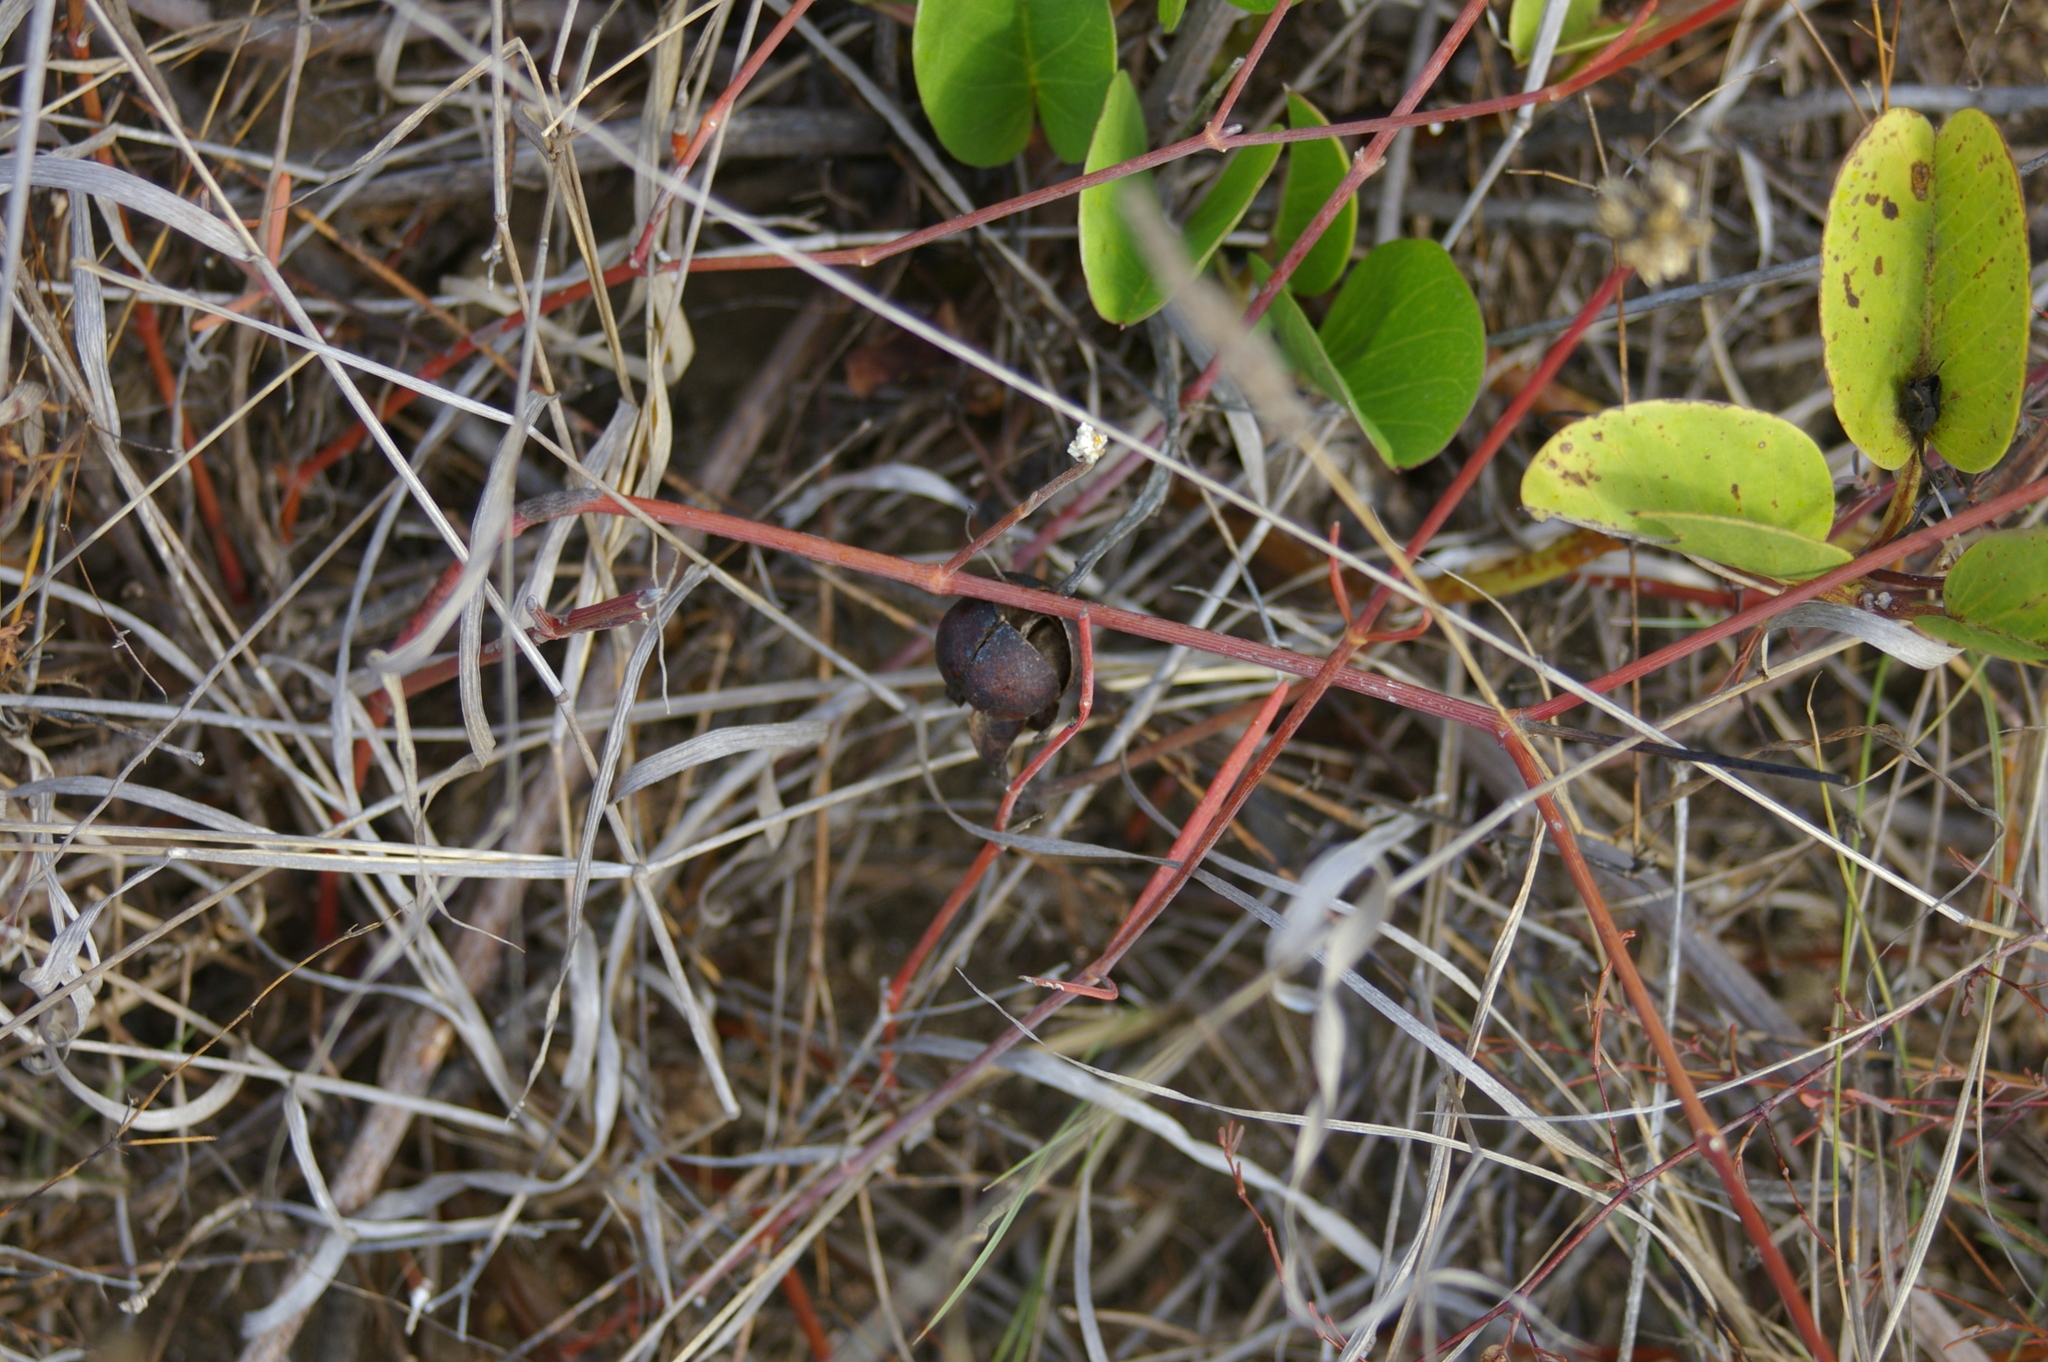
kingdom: Plantae
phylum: Tracheophyta
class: Magnoliopsida
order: Solanales
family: Convolvulaceae
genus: Ipomoea
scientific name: Ipomoea pes-caprae
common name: Beach morning glory
